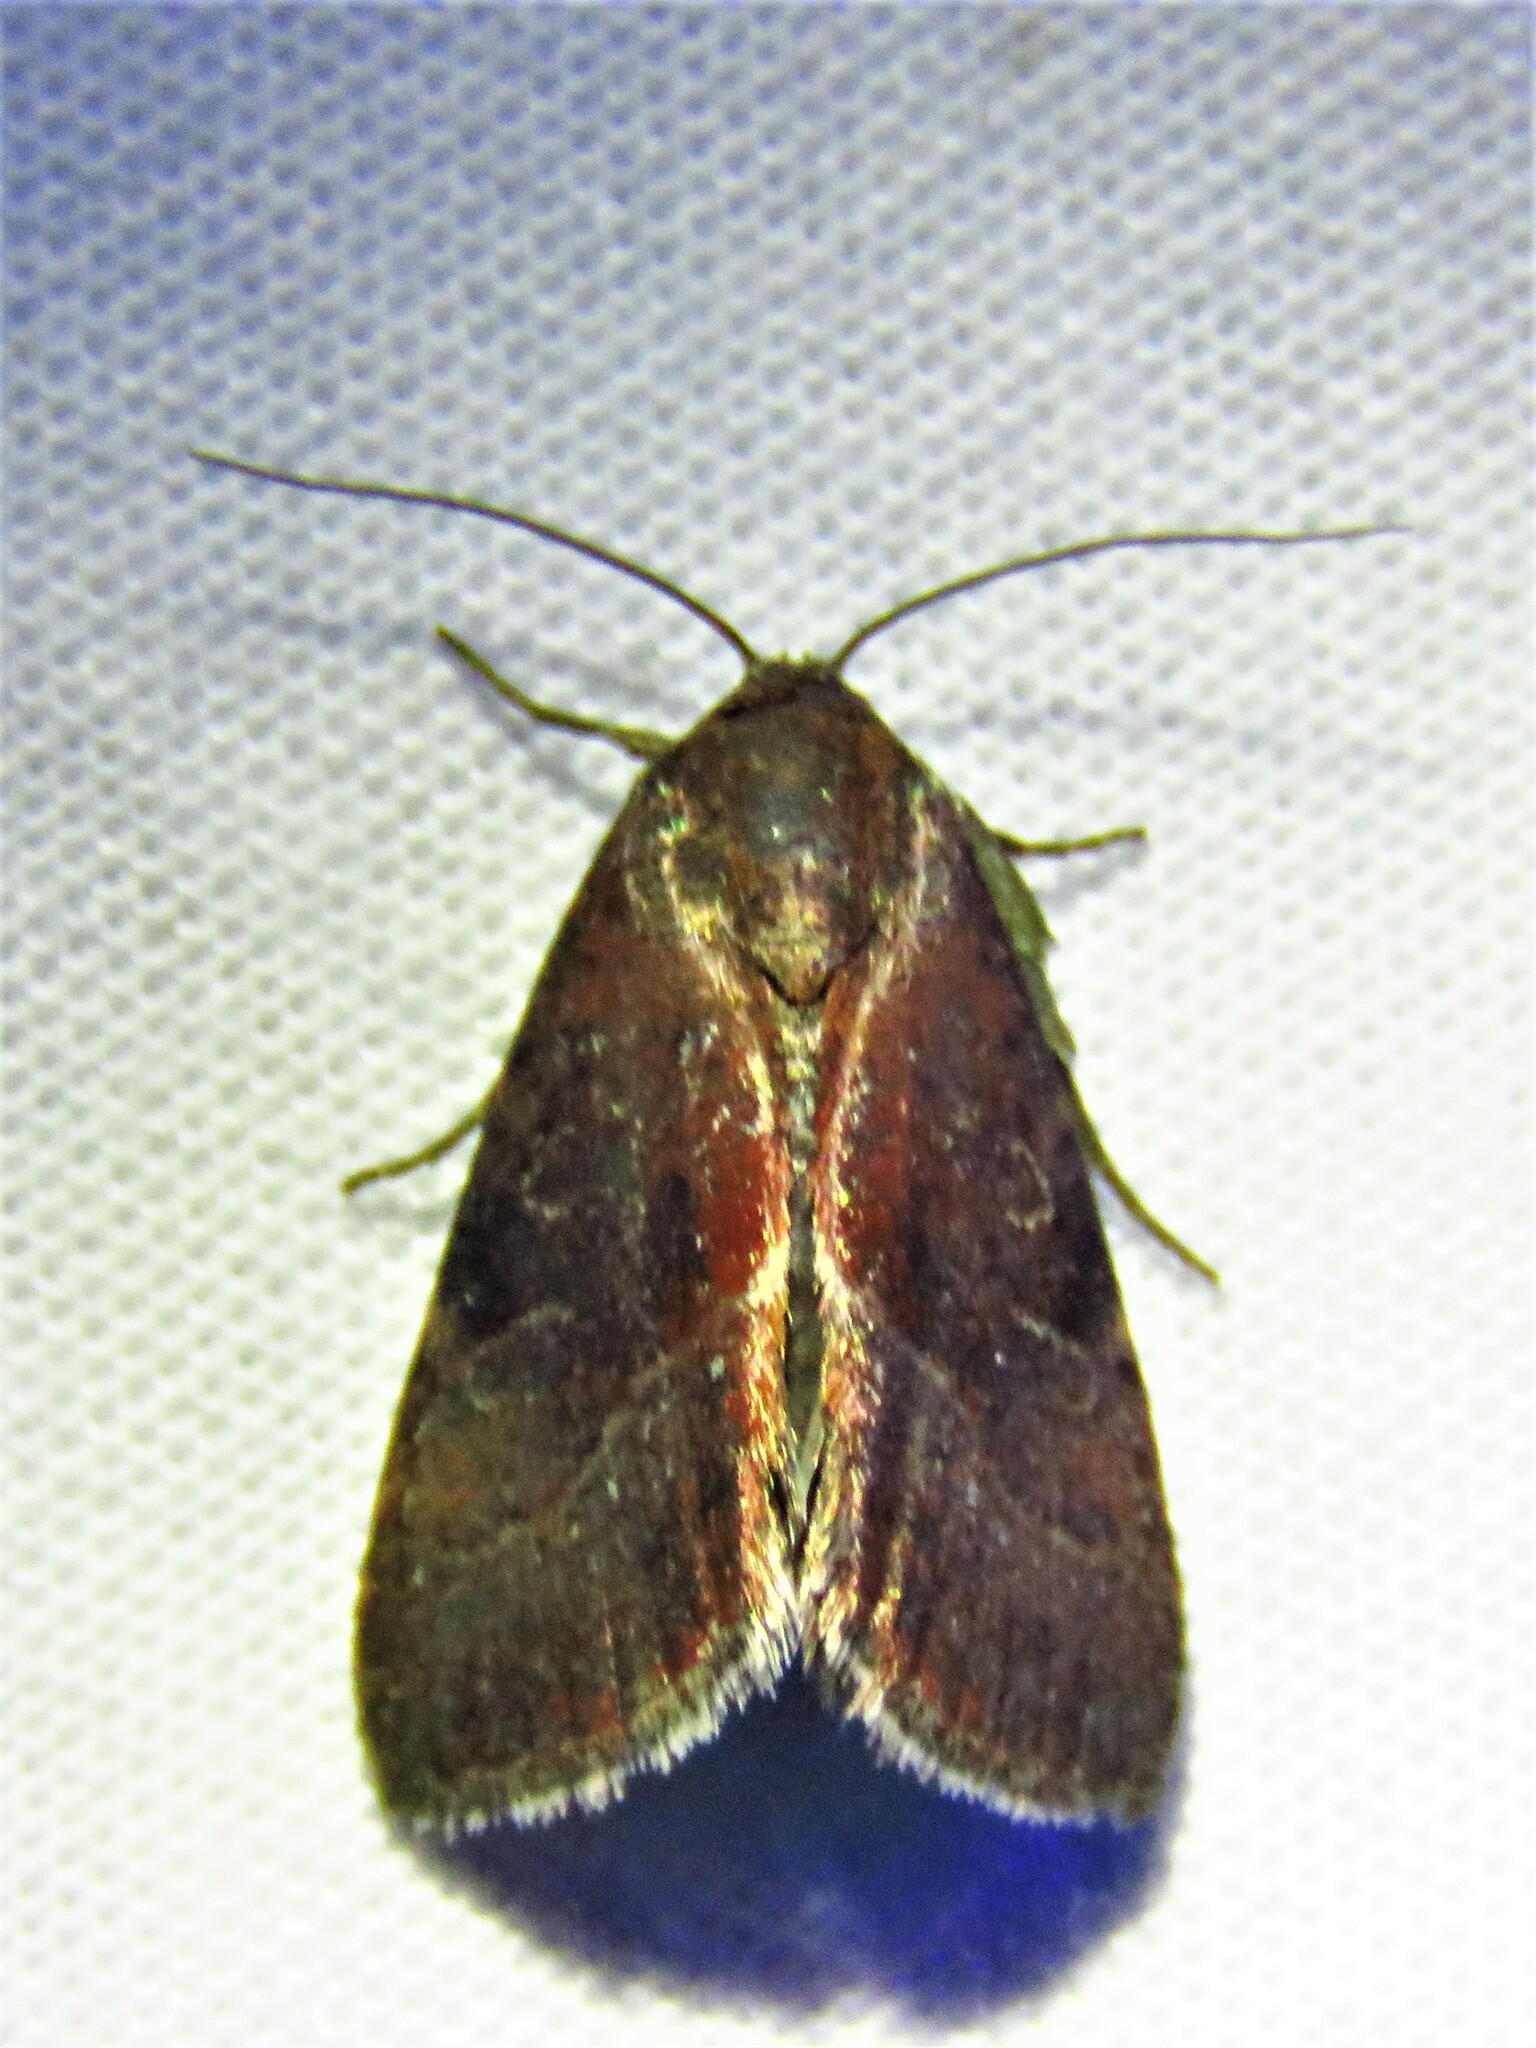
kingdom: Animalia
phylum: Arthropoda
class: Insecta
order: Lepidoptera
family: Noctuidae
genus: Galgula
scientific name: Galgula partita
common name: Wedgeling
